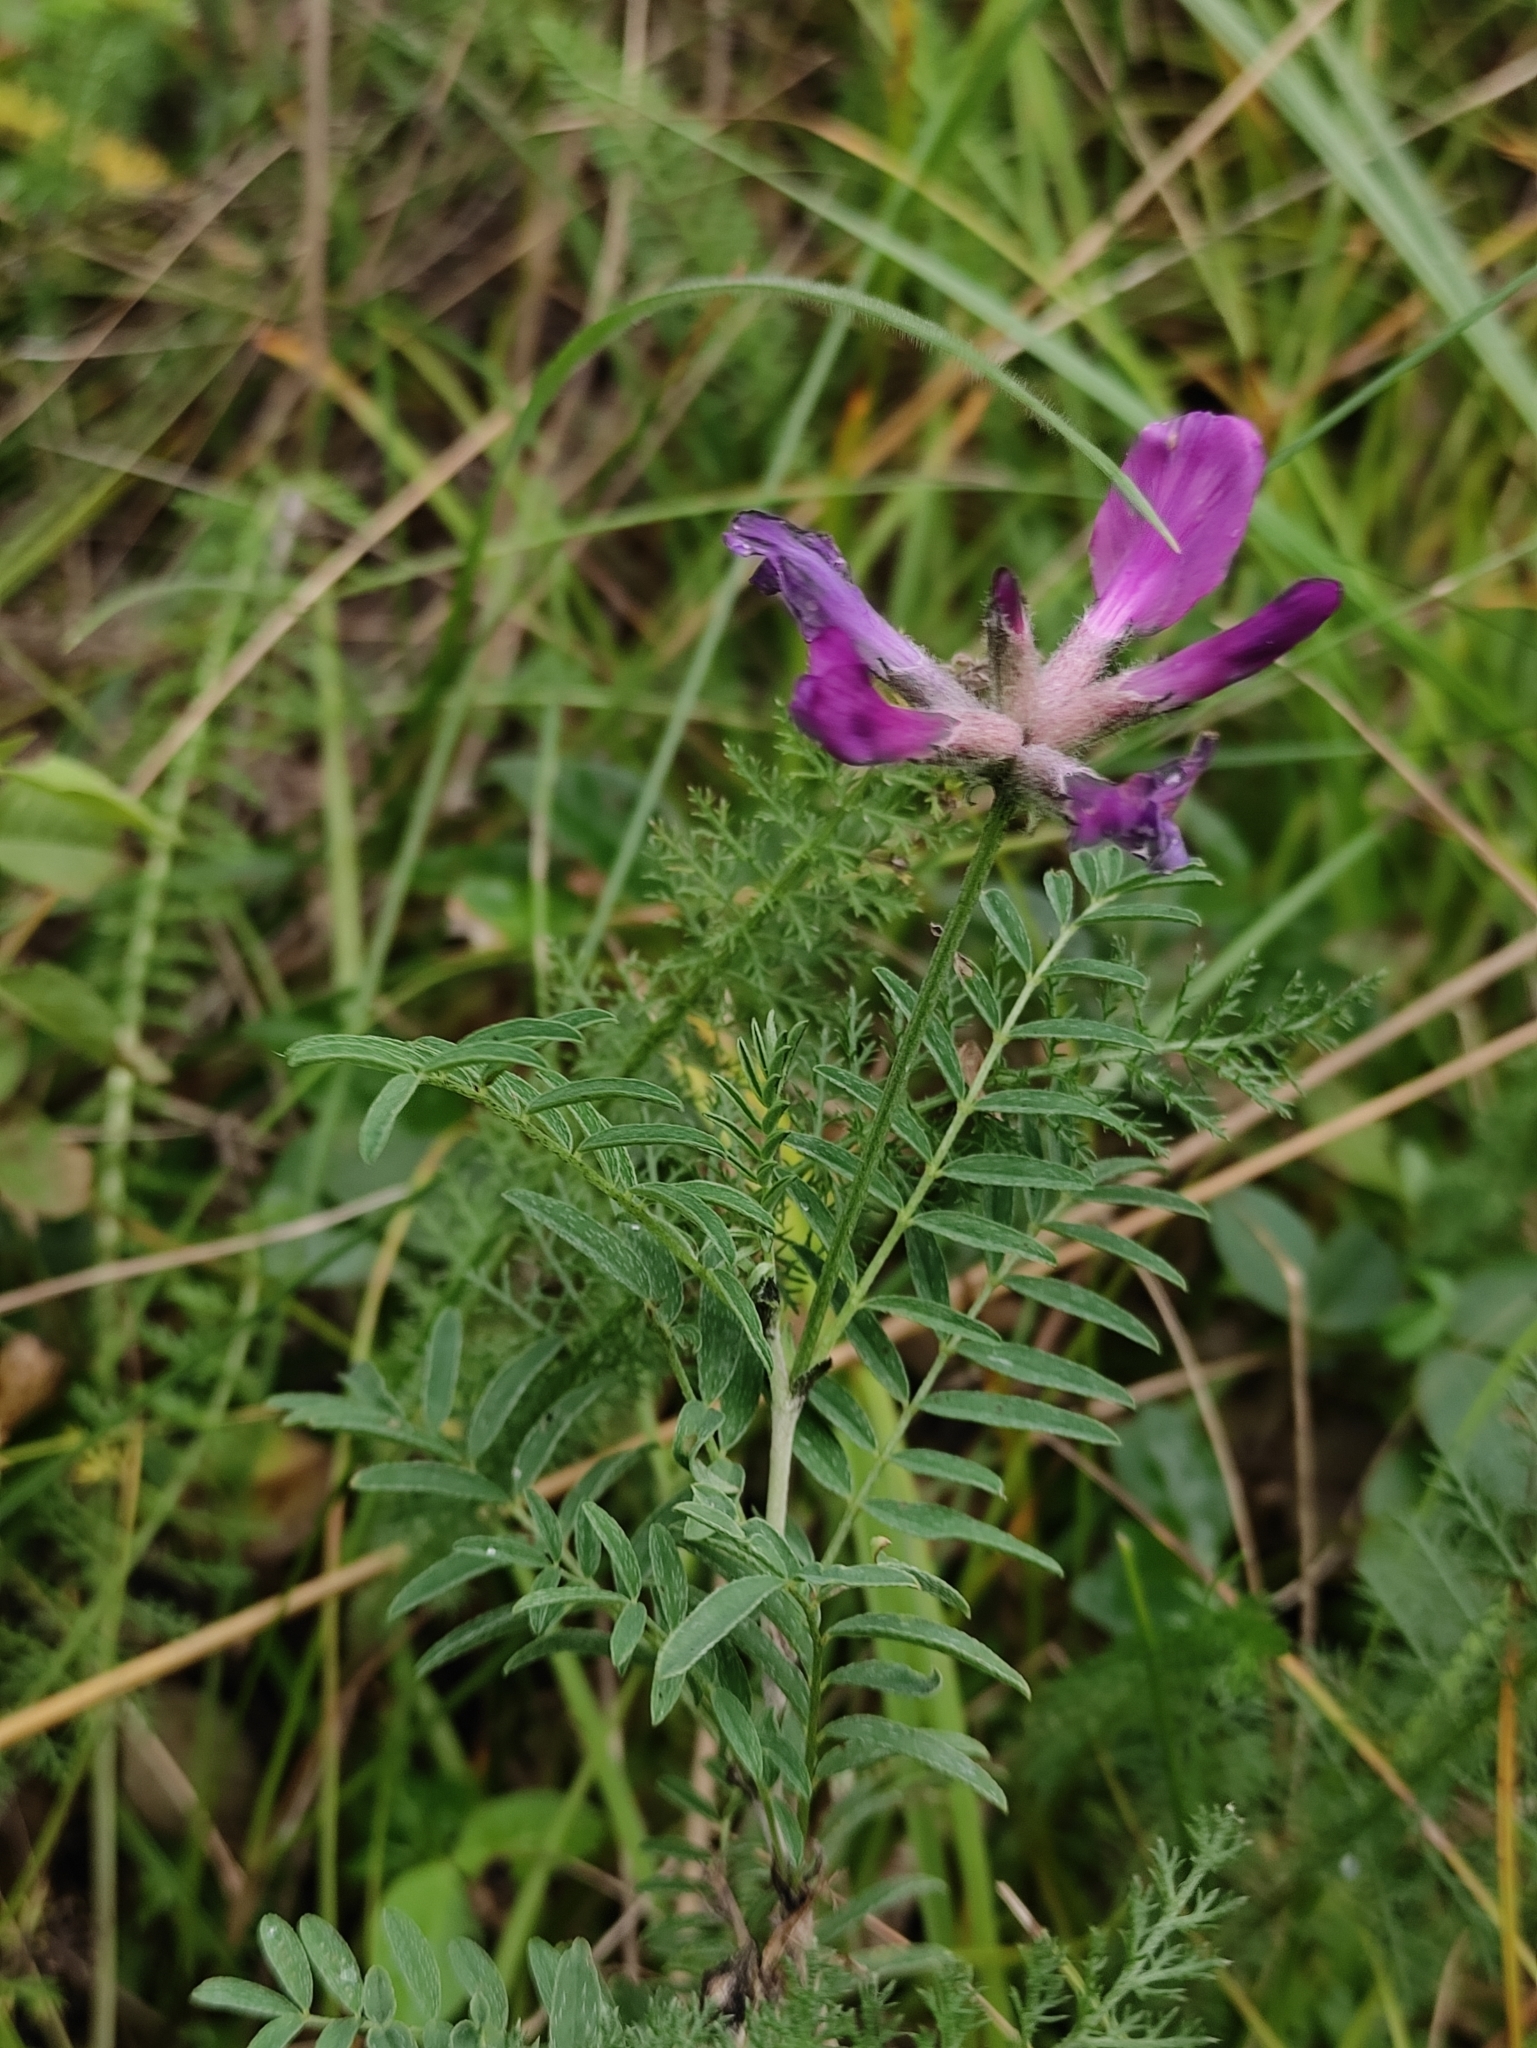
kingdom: Plantae
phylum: Tracheophyta
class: Magnoliopsida
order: Fabales
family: Fabaceae
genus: Astragalus
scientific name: Astragalus syriacus
